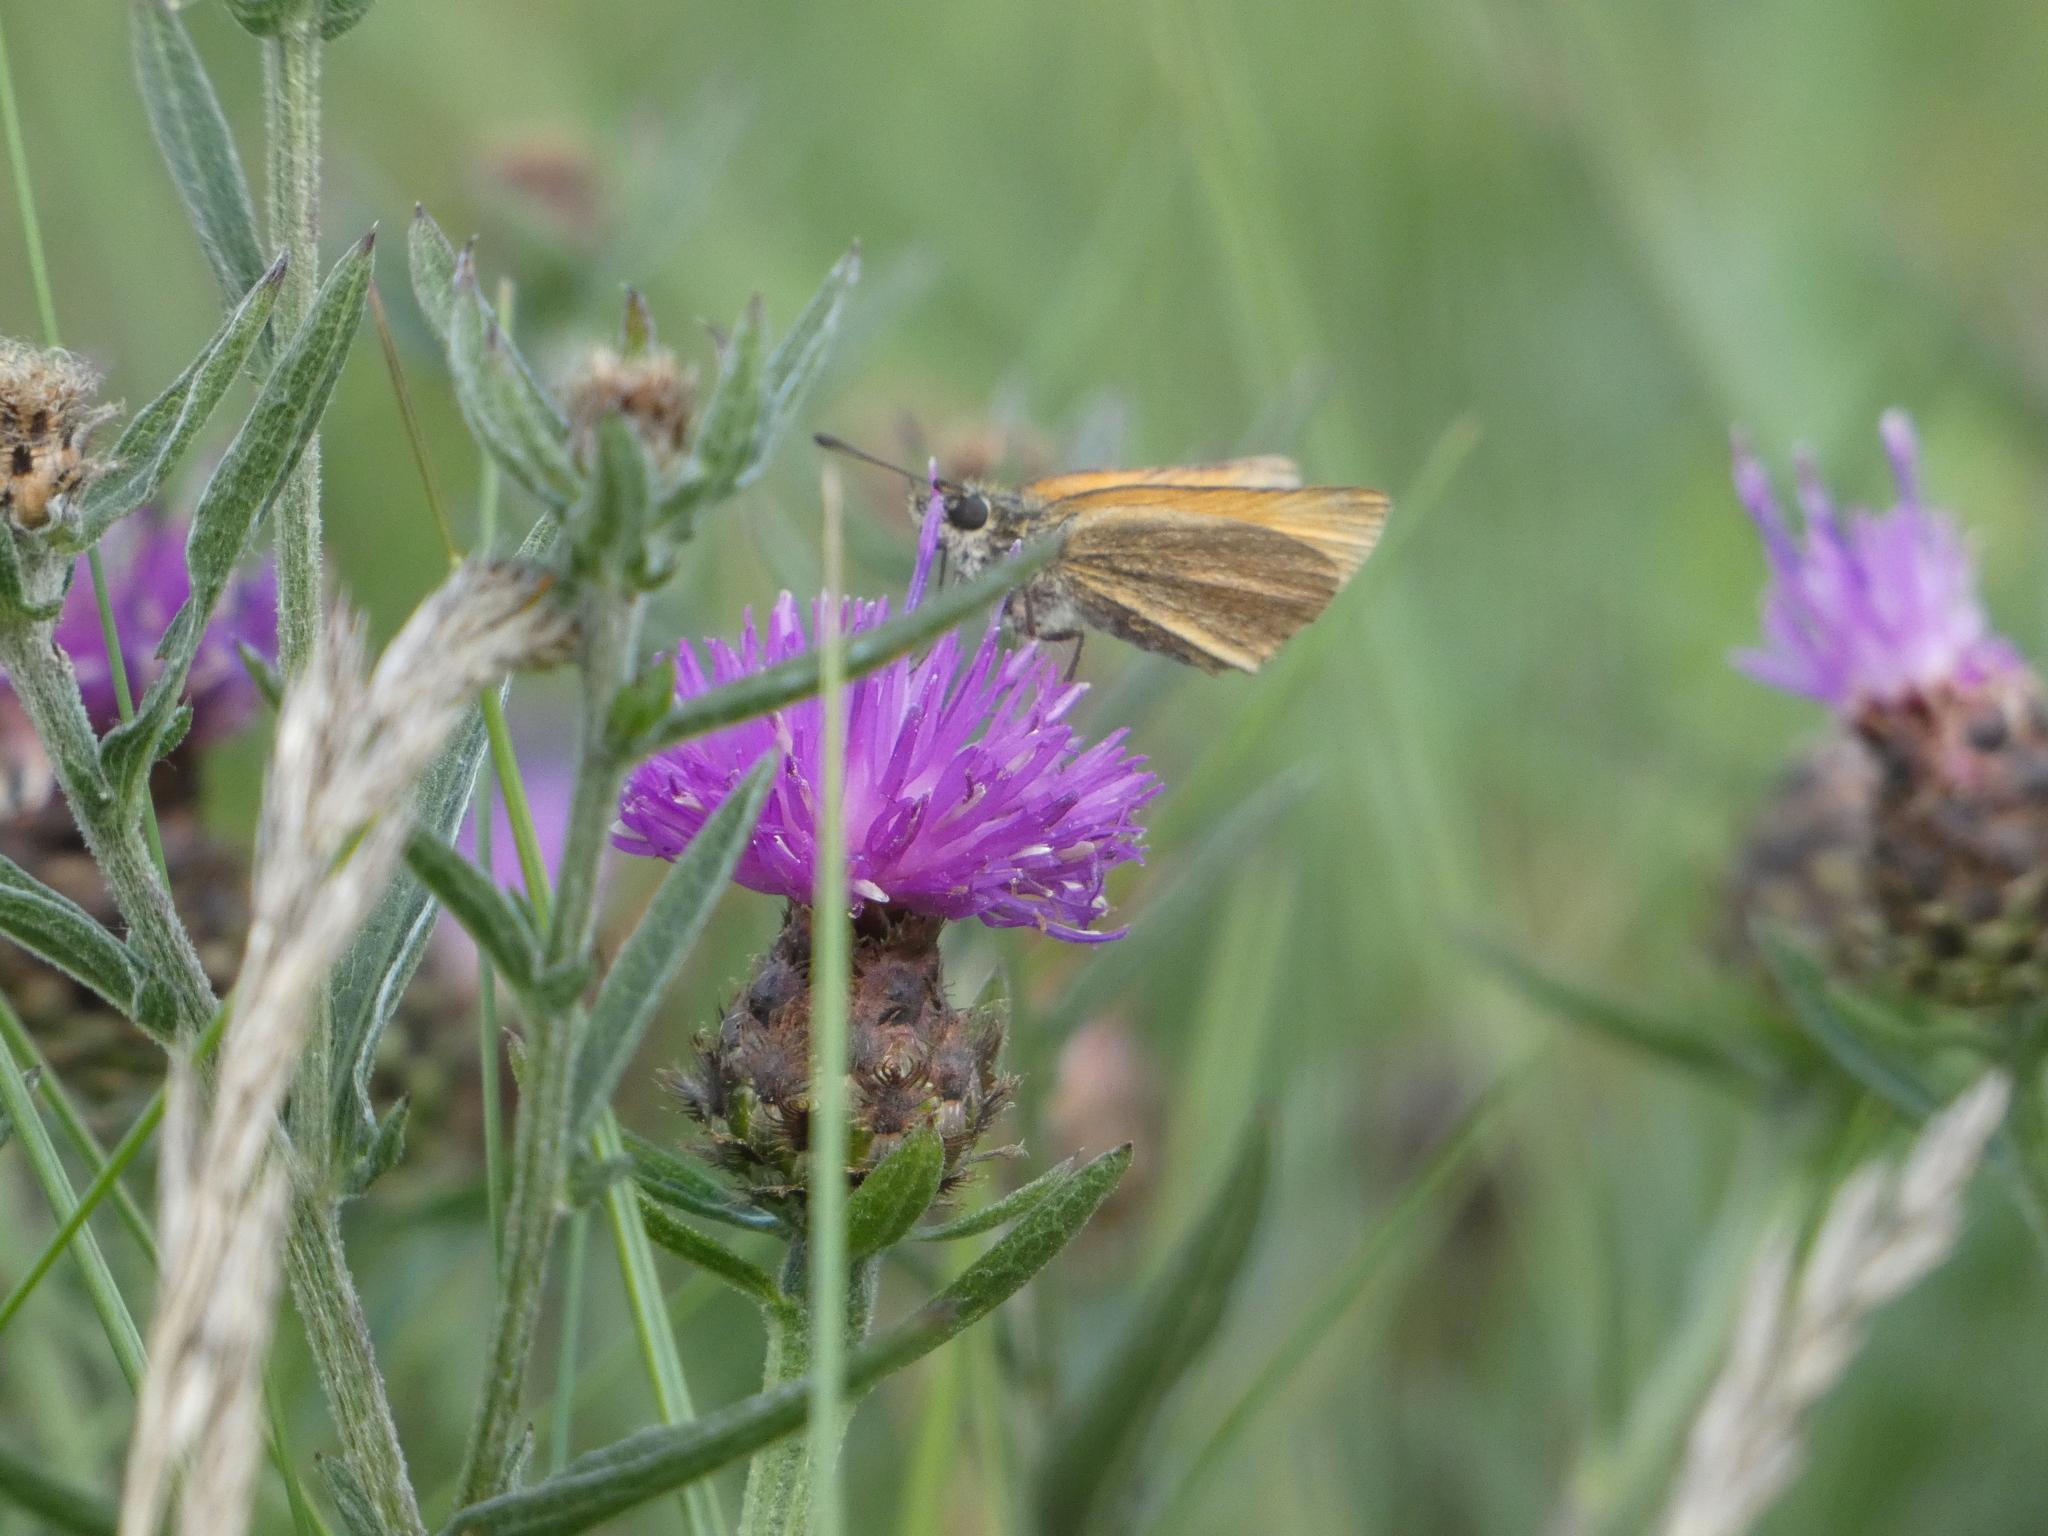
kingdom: Animalia
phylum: Arthropoda
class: Insecta
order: Lepidoptera
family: Hesperiidae
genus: Thymelicus
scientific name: Thymelicus lineola
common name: Essex skipper
